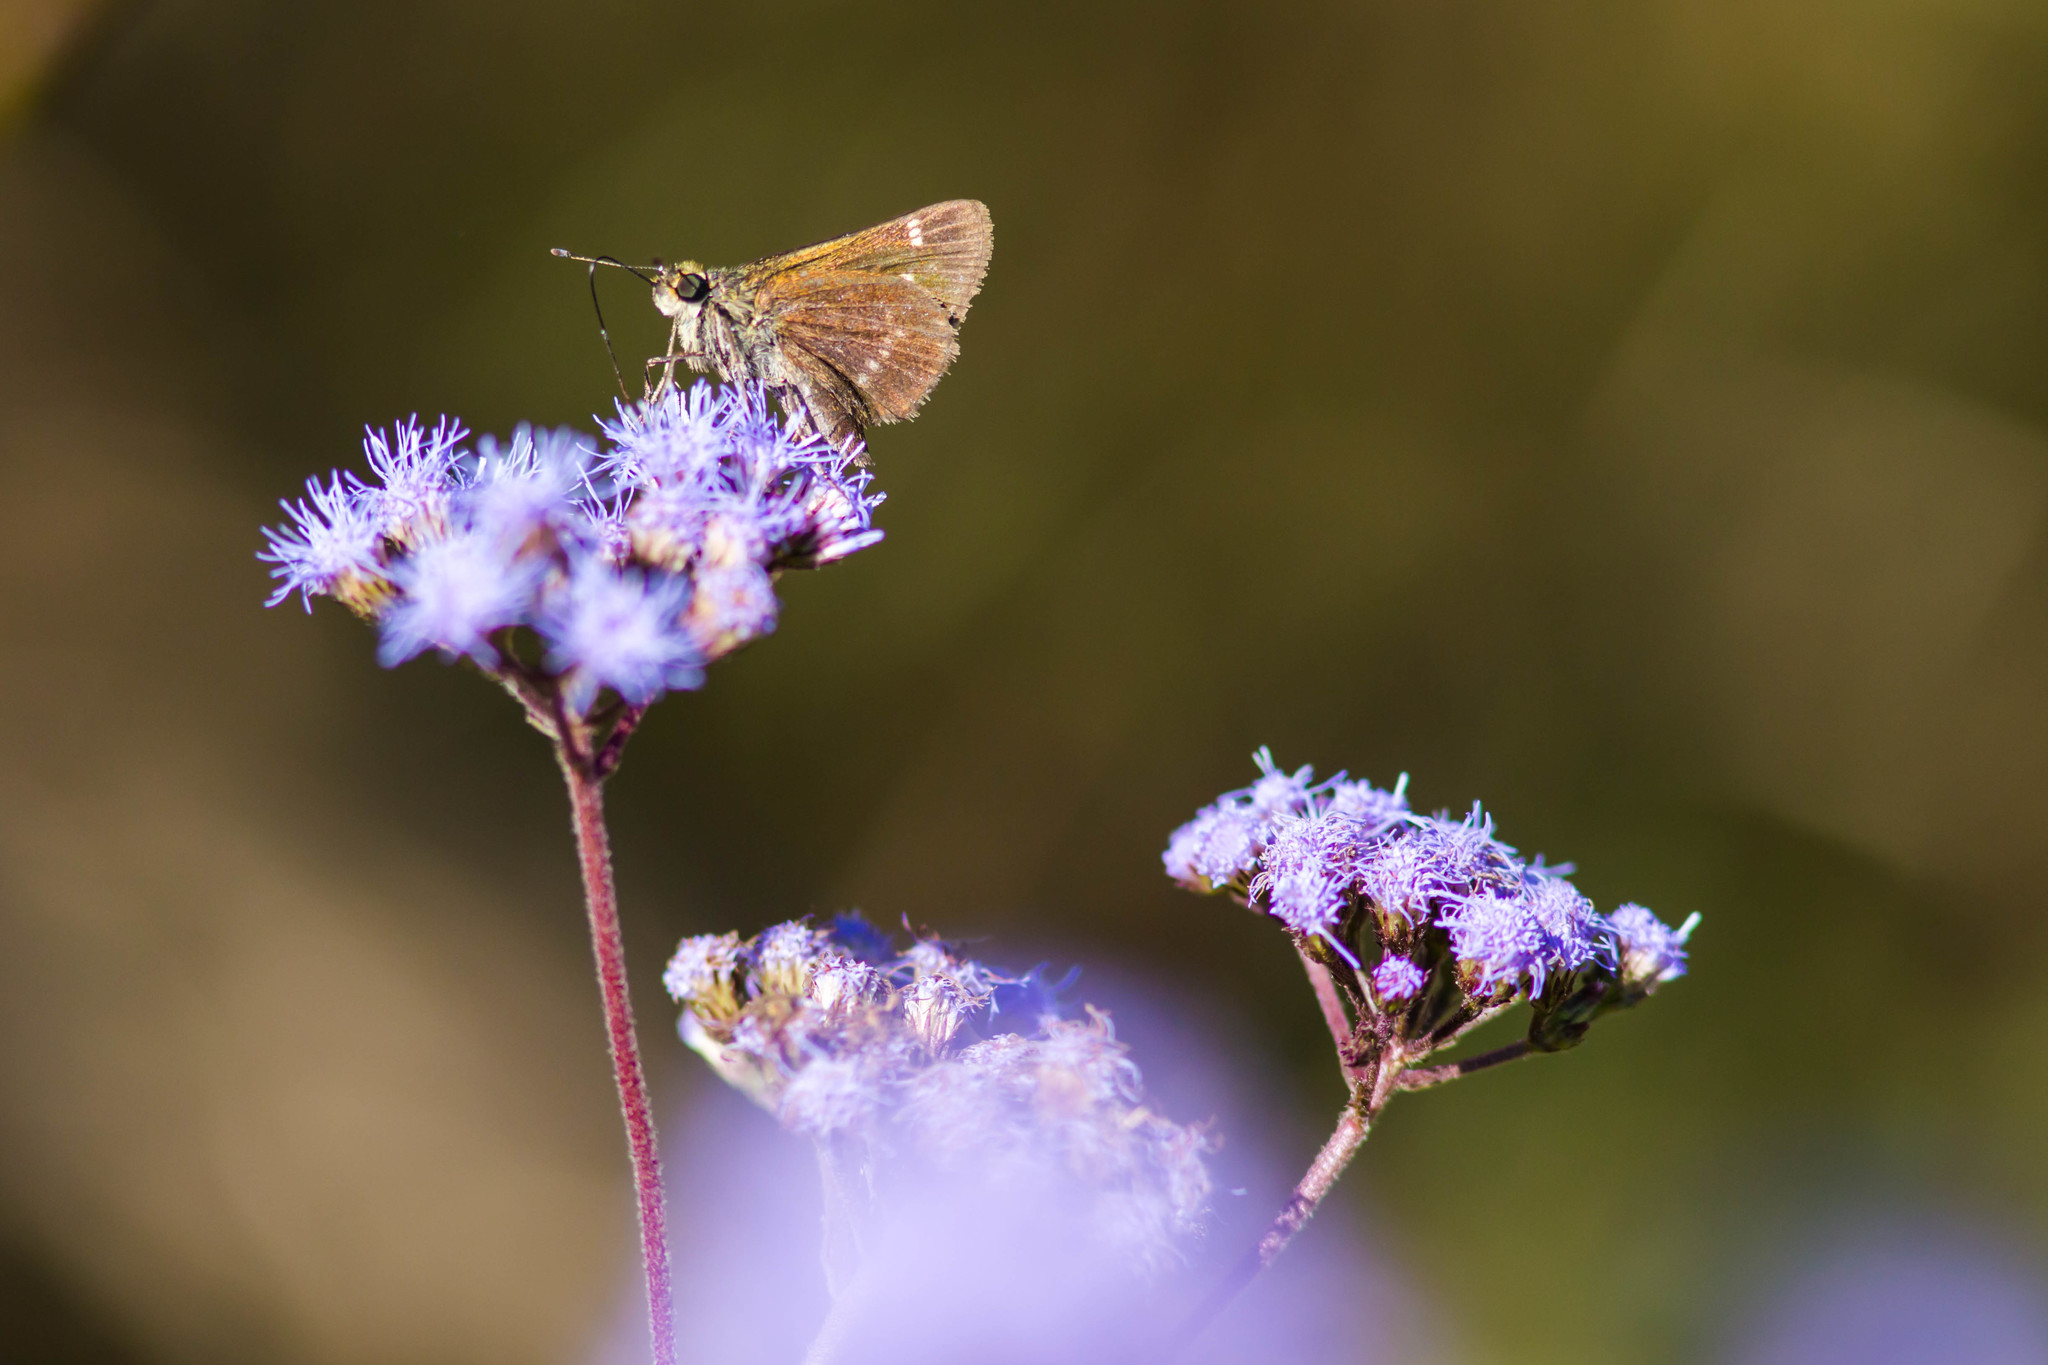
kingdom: Animalia
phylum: Arthropoda
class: Insecta
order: Lepidoptera
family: Hesperiidae
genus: Vernia
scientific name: Vernia verna
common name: Little glassywing
